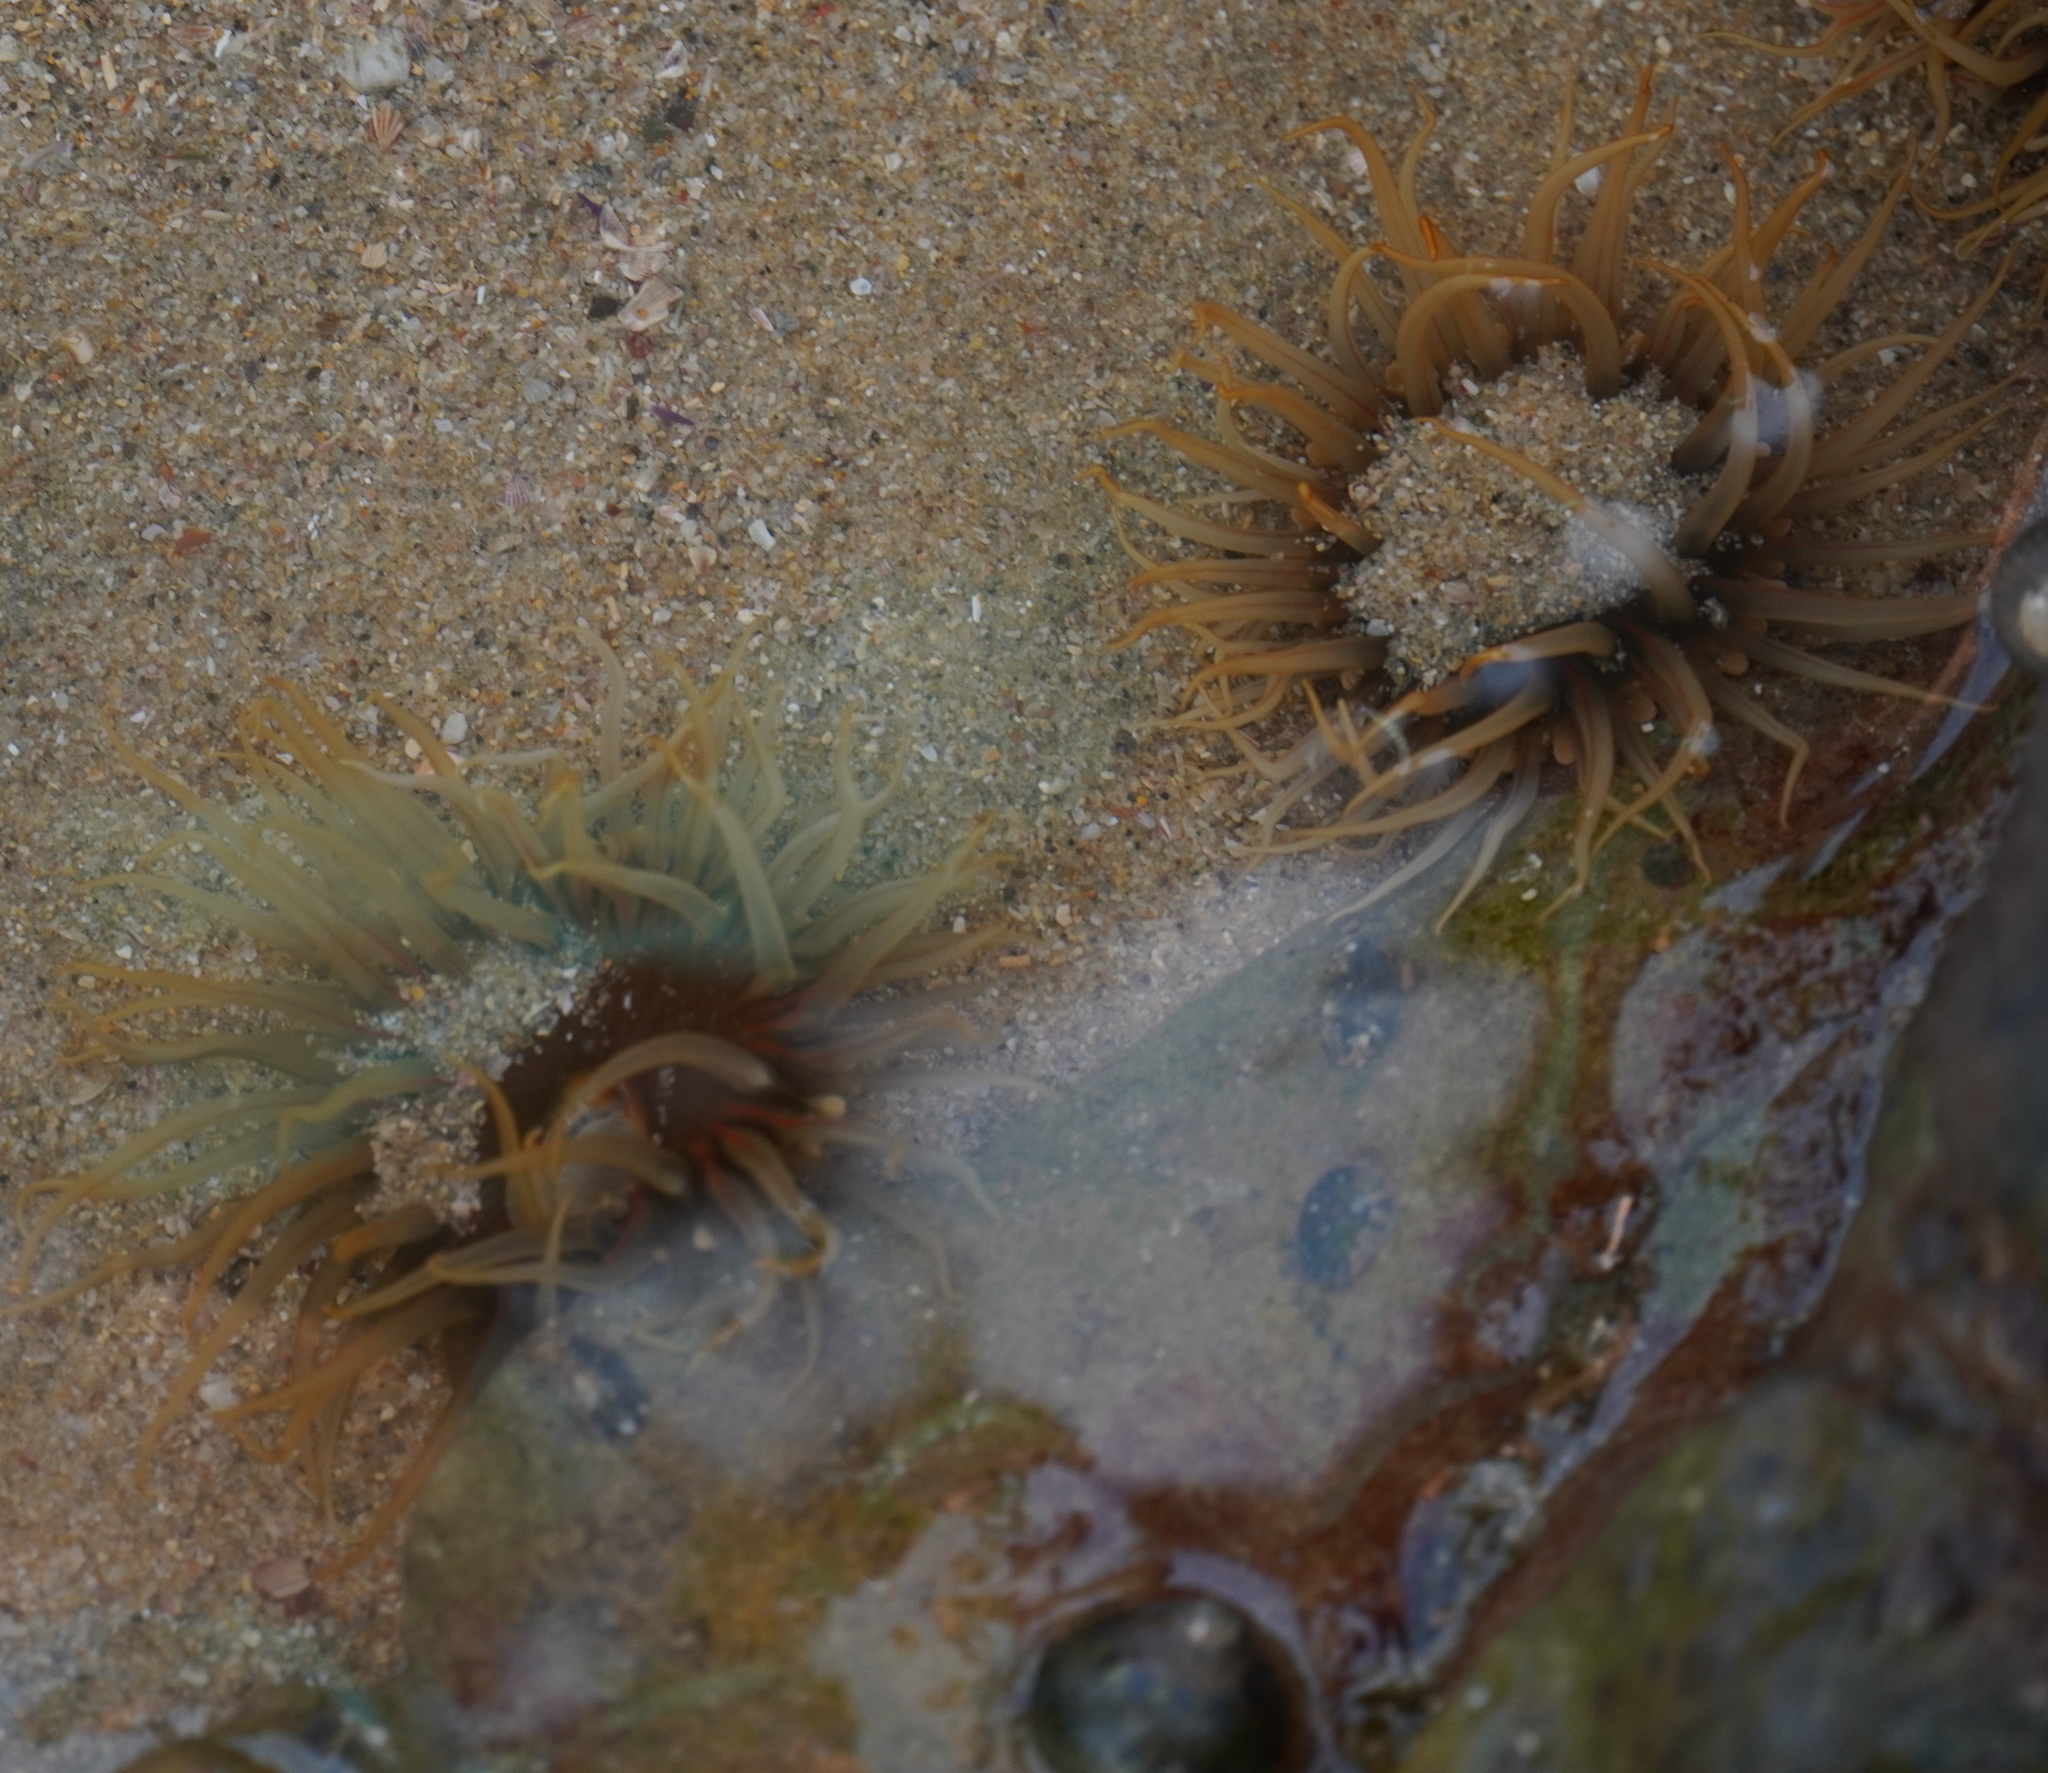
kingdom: Animalia
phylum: Cnidaria
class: Anthozoa
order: Actiniaria
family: Actiniidae
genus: Anthopleura
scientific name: Anthopleura michaelseni
